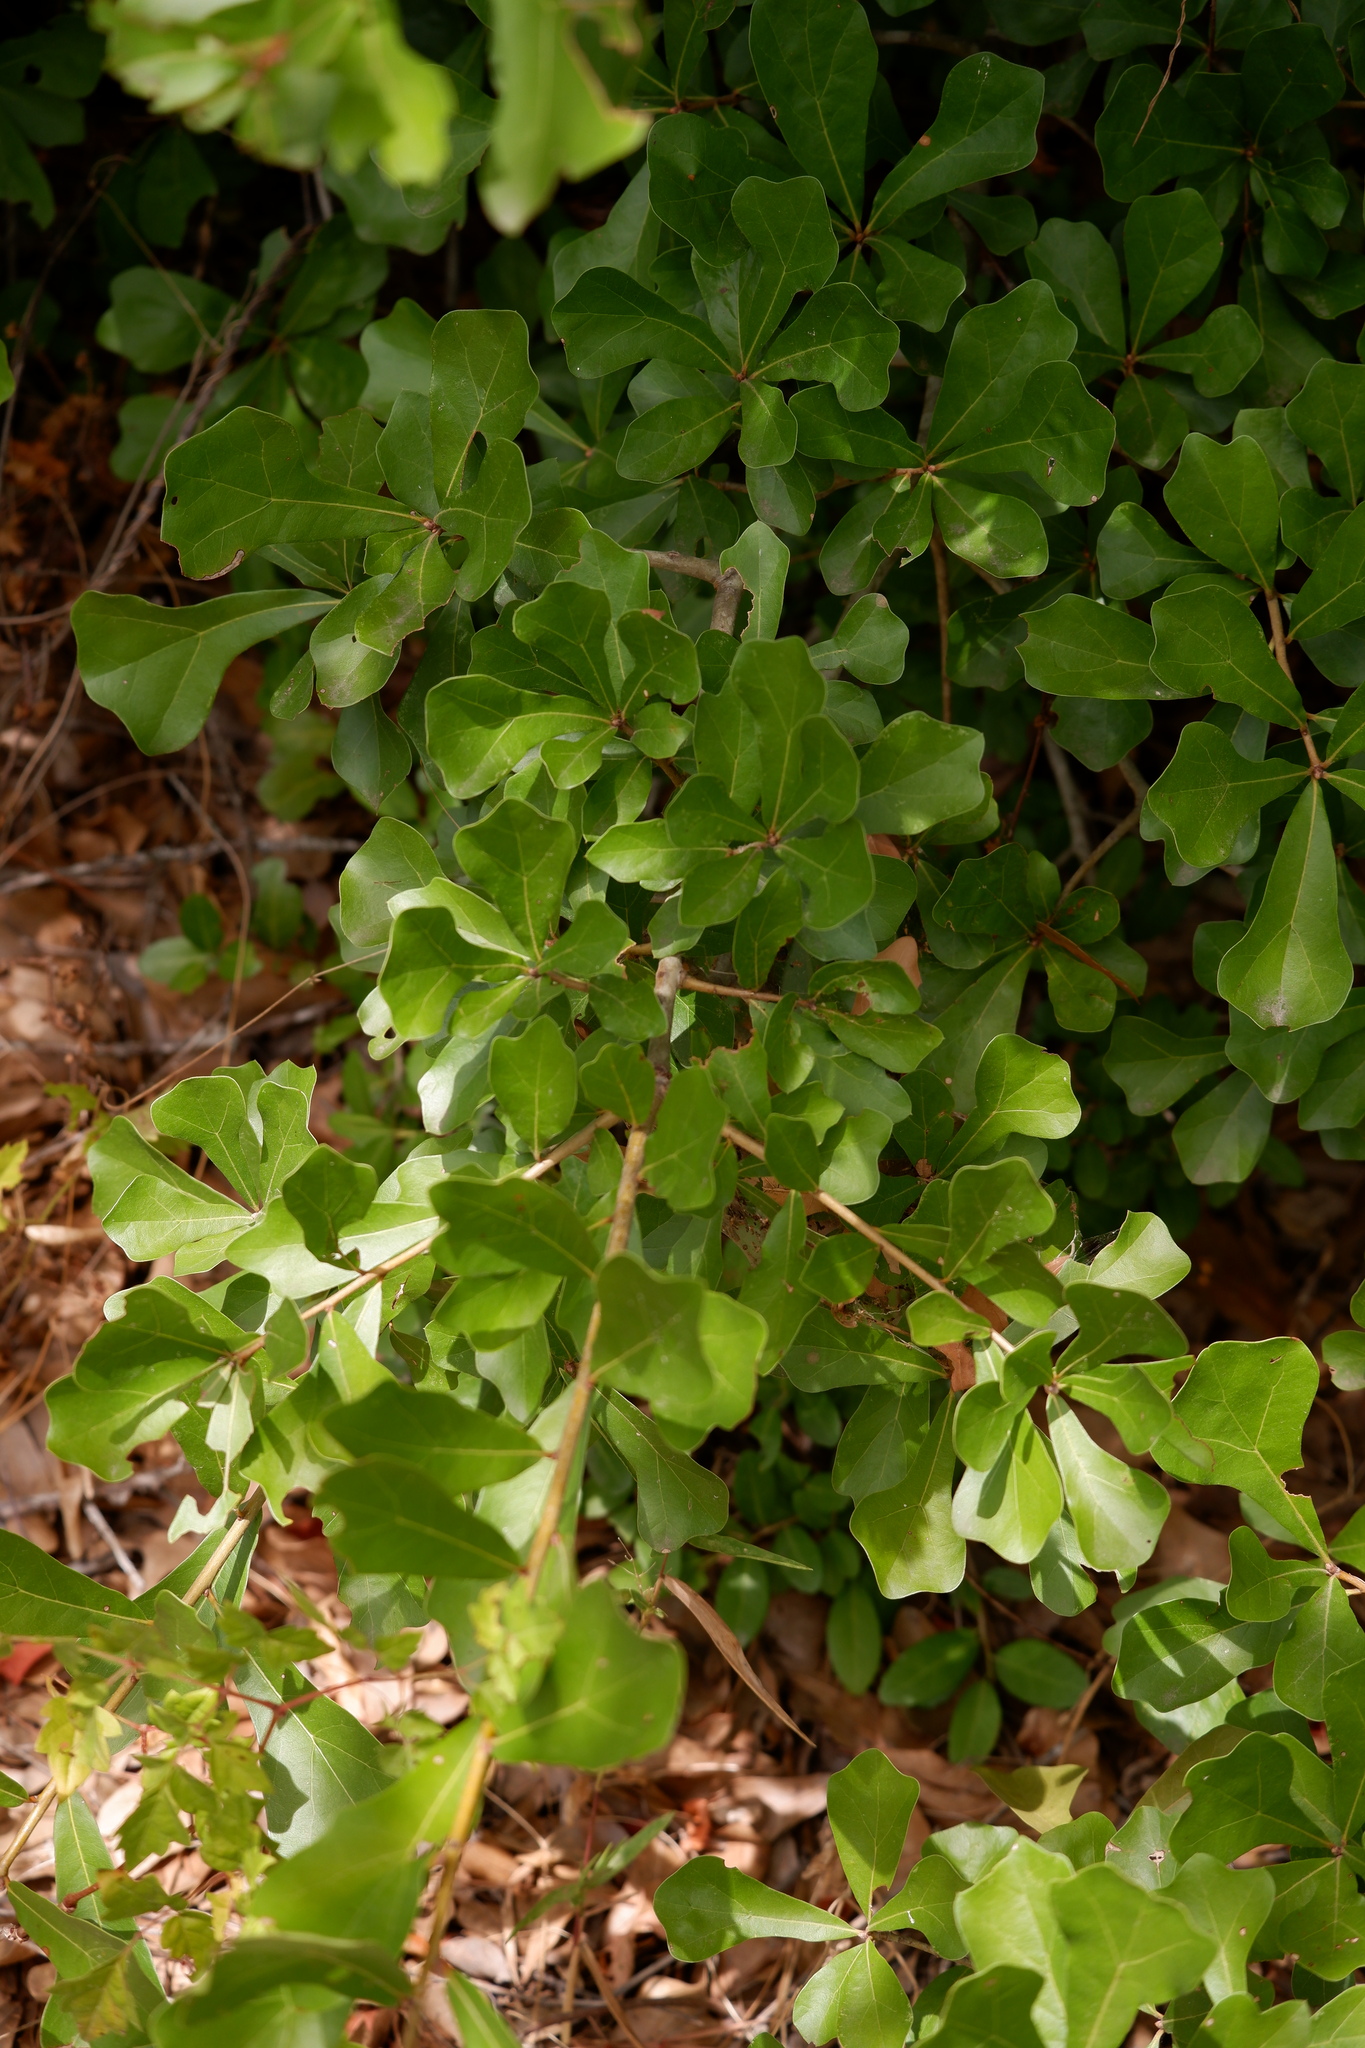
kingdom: Plantae
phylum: Tracheophyta
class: Magnoliopsida
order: Fagales
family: Fagaceae
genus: Quercus
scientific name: Quercus nigra
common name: Water oak
